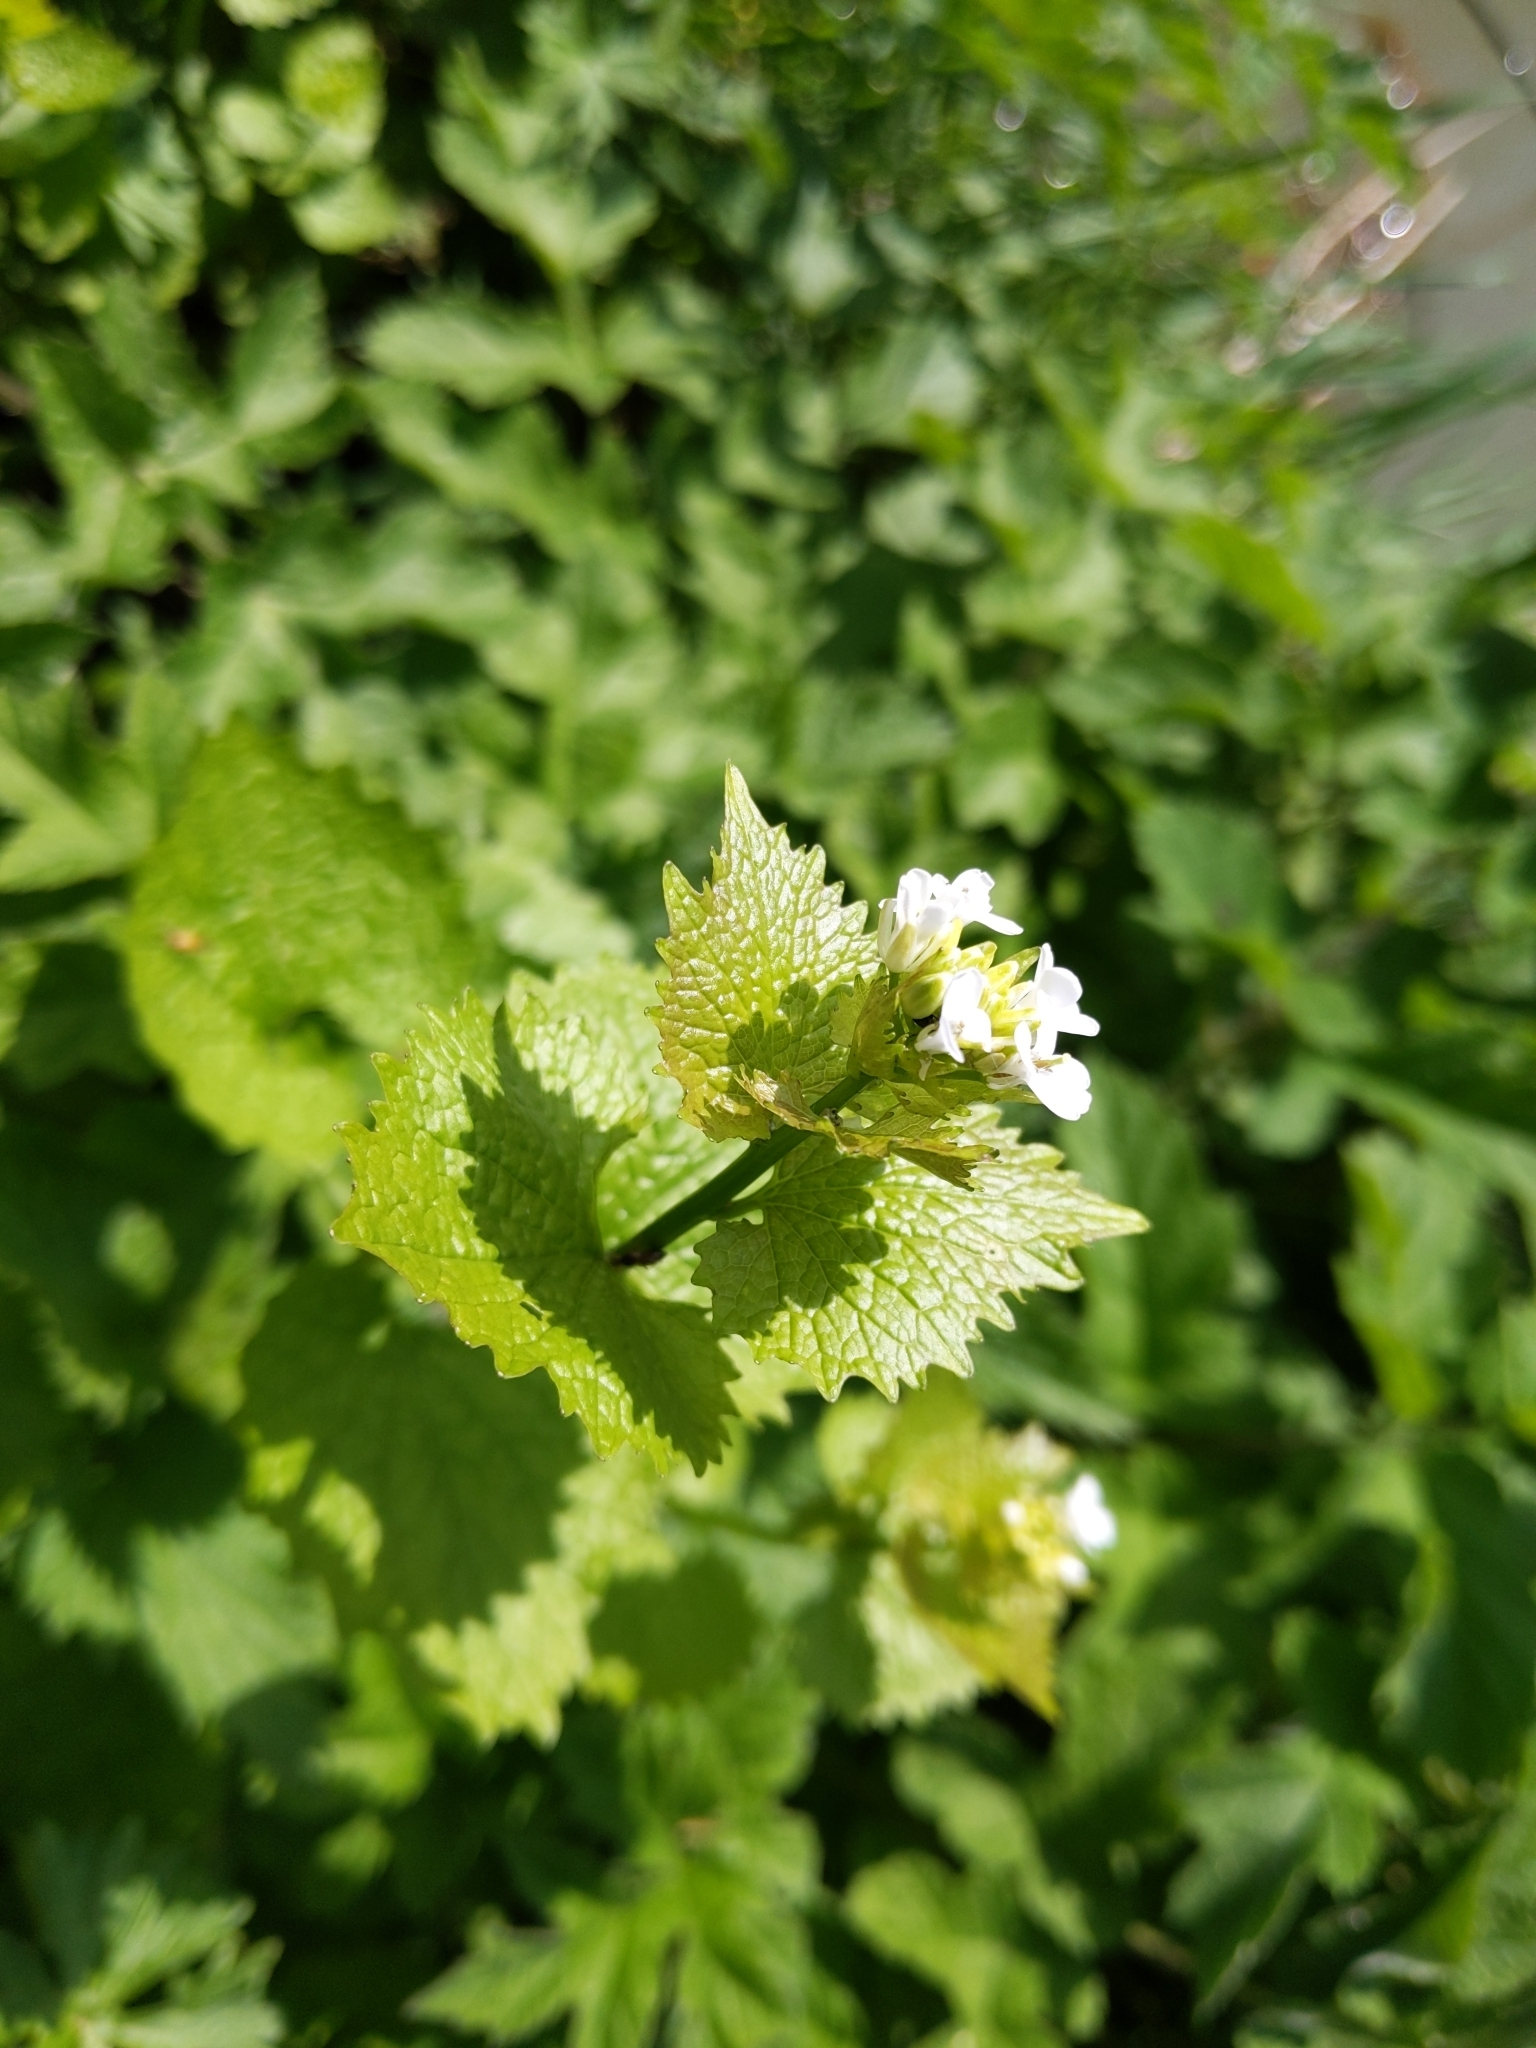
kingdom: Plantae
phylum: Tracheophyta
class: Magnoliopsida
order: Brassicales
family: Brassicaceae
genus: Alliaria
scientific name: Alliaria petiolata
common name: Garlic mustard
